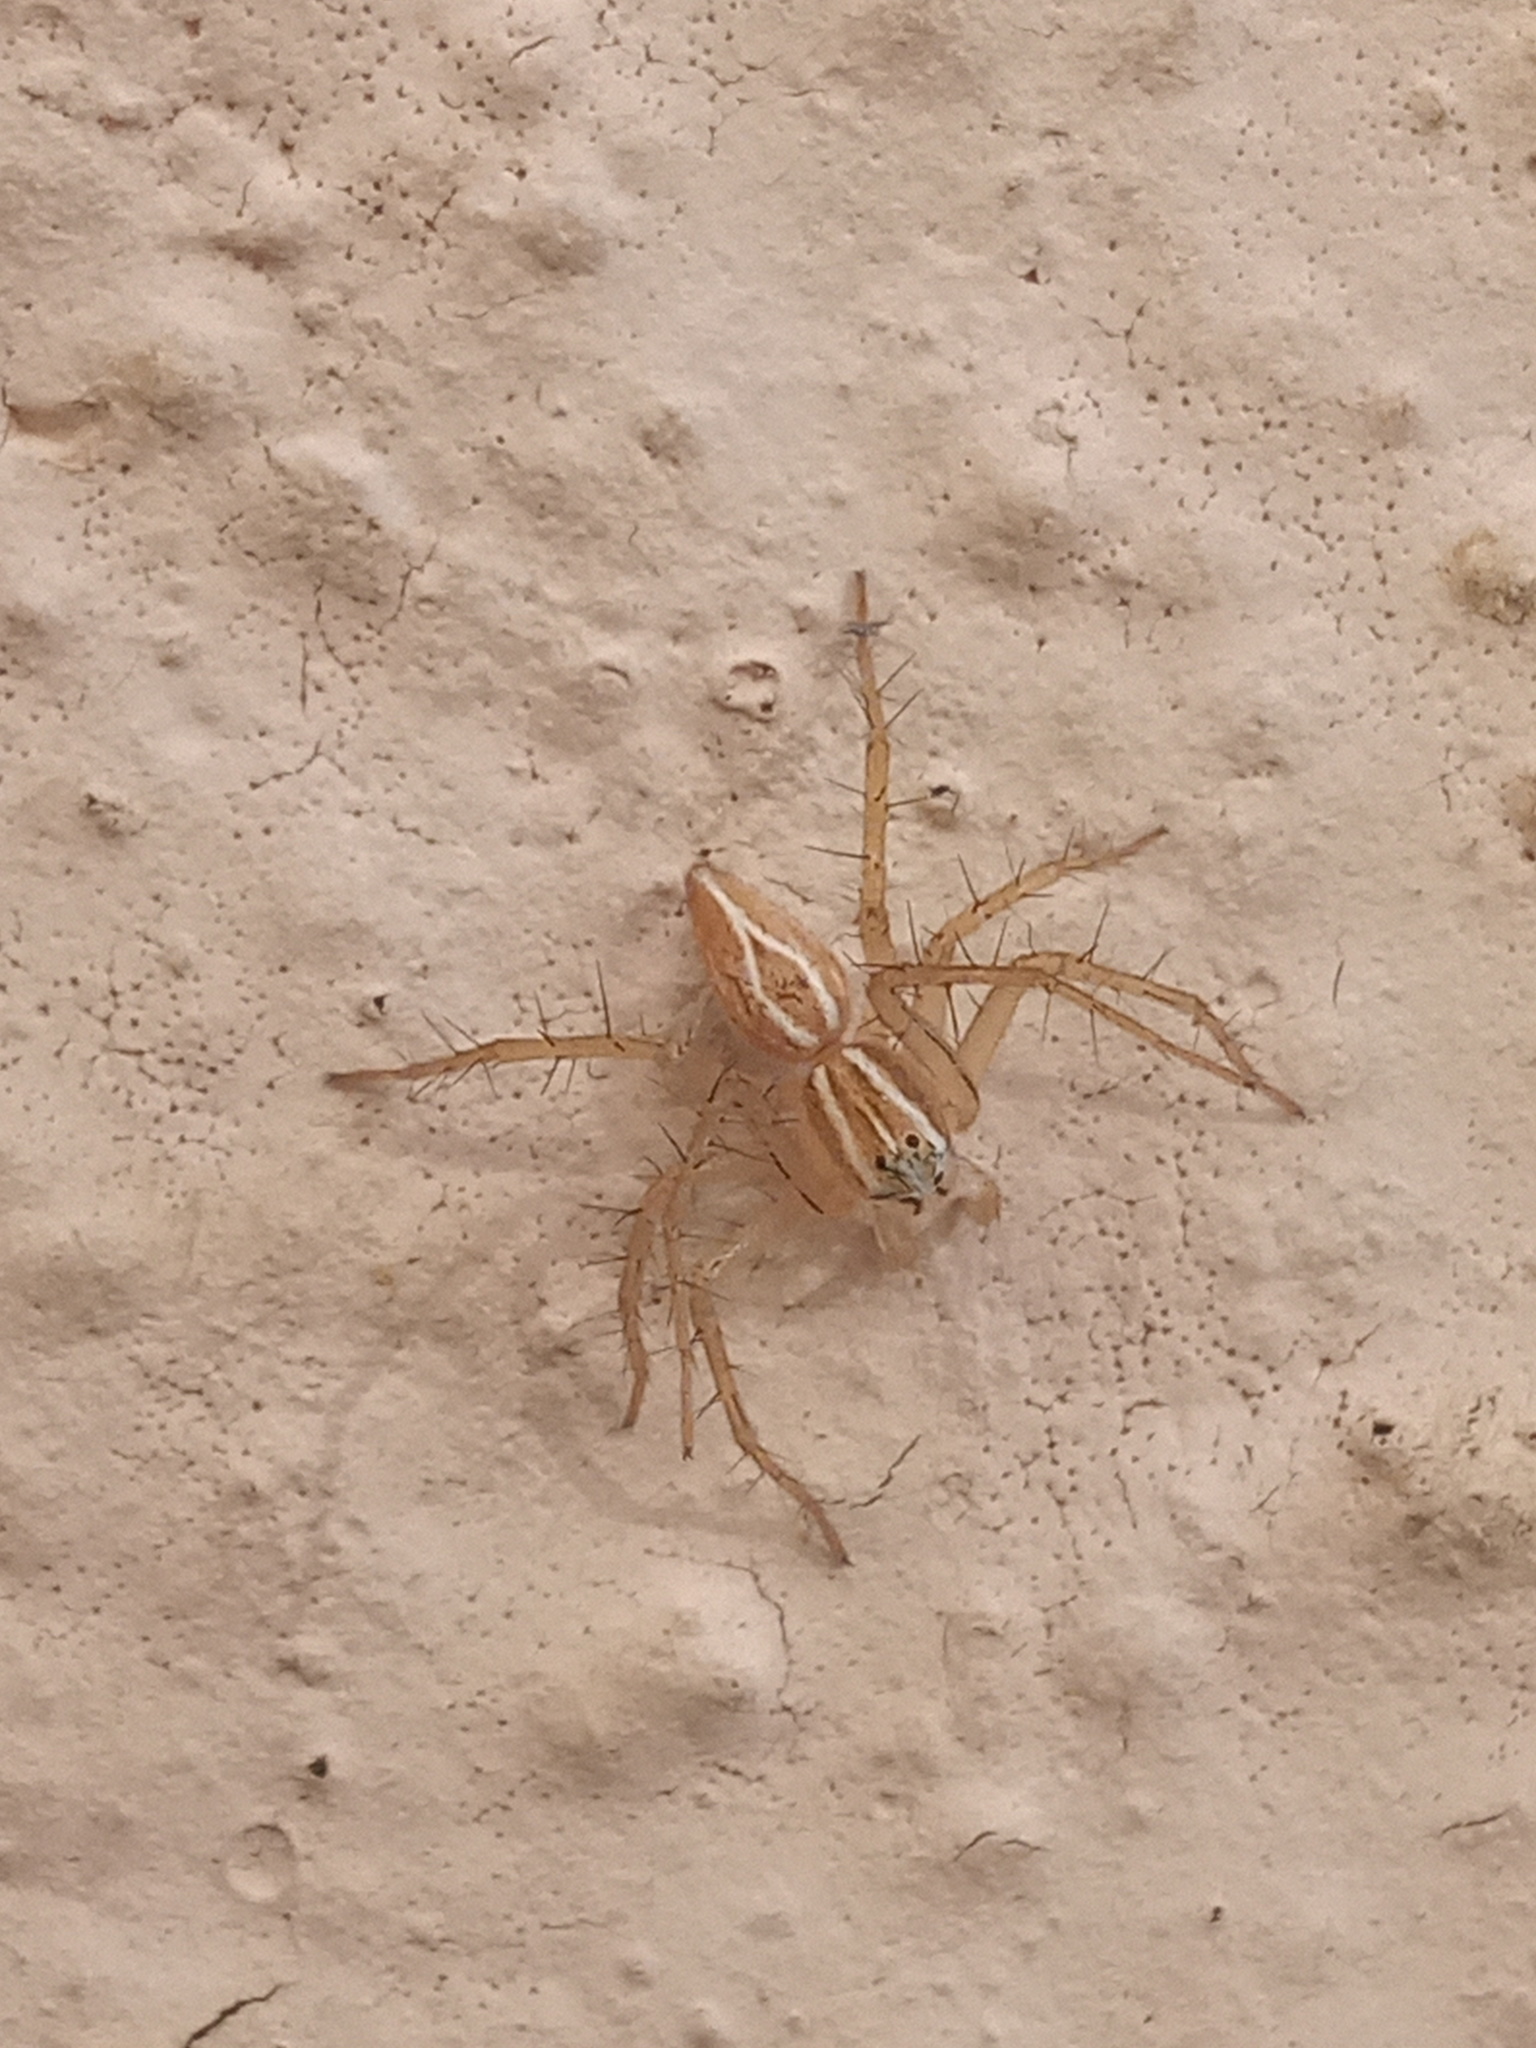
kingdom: Animalia
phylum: Arthropoda
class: Arachnida
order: Araneae
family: Oxyopidae
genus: Oxyopes
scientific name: Oxyopes salticus
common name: Lynx spiders
